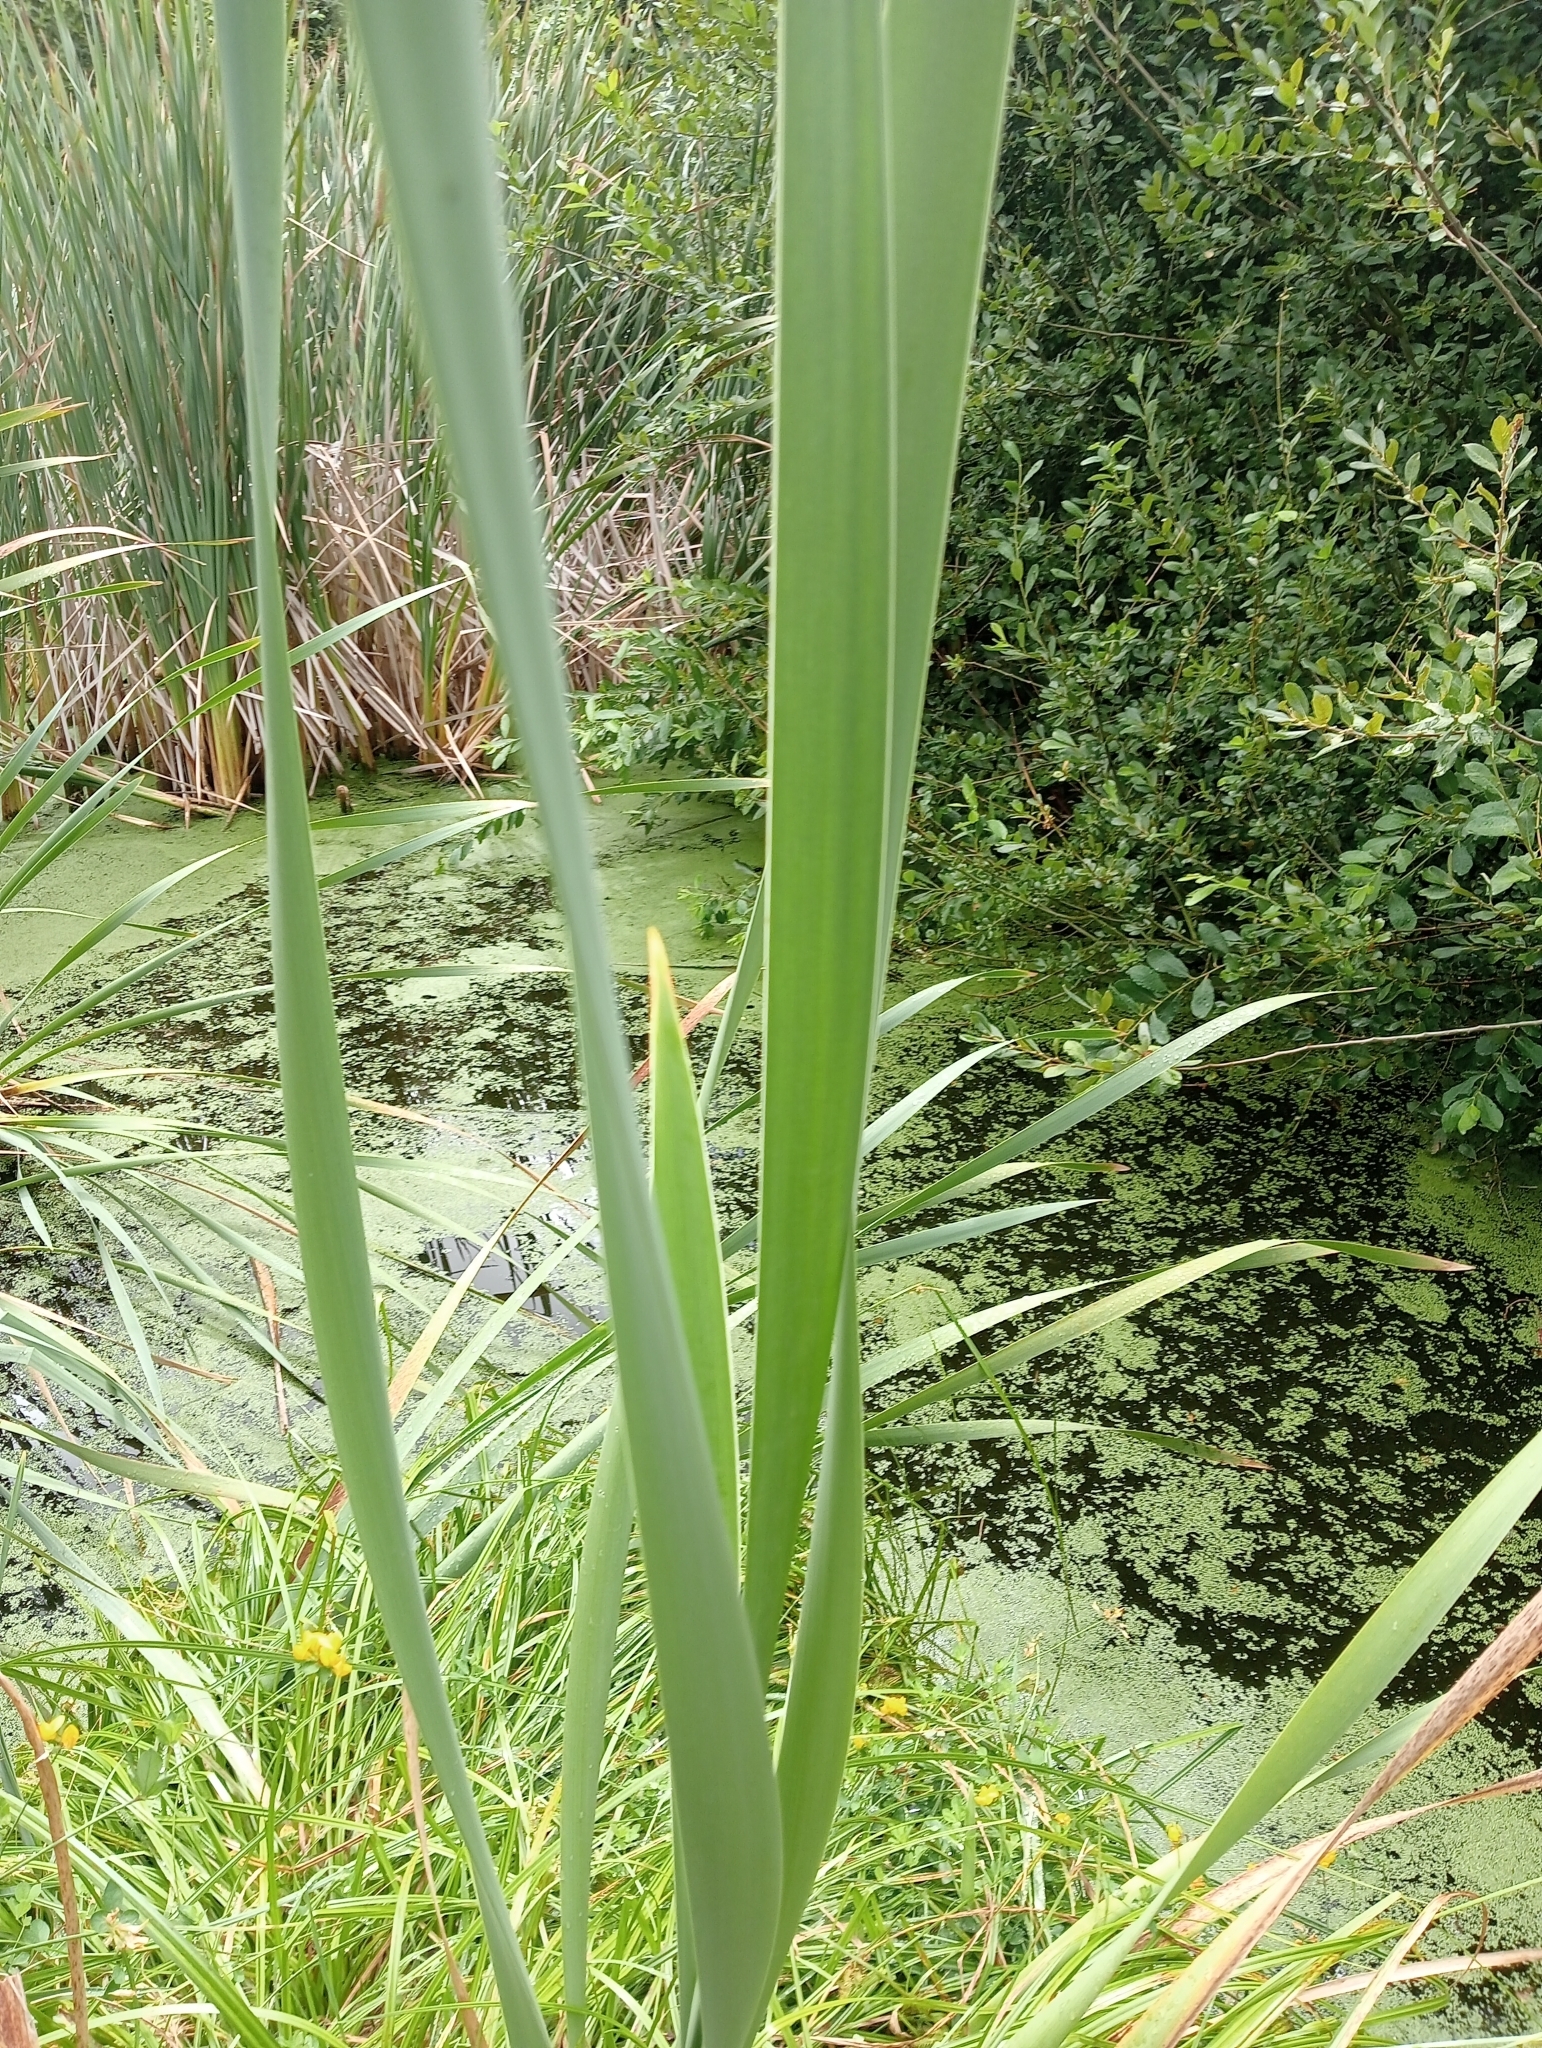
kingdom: Plantae
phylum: Tracheophyta
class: Liliopsida
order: Poales
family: Typhaceae
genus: Typha
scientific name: Typha orientalis
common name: Bullrush
